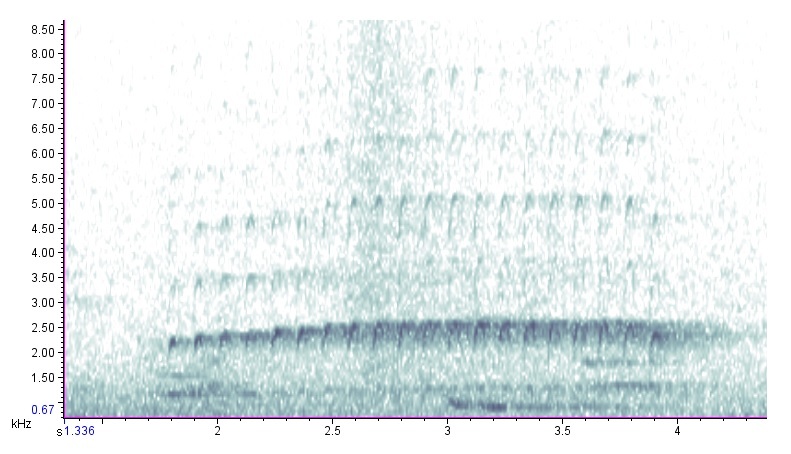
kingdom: Animalia
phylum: Chordata
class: Aves
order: Piciformes
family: Picidae
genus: Dryocopus
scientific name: Dryocopus pileatus
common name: Pileated woodpecker
